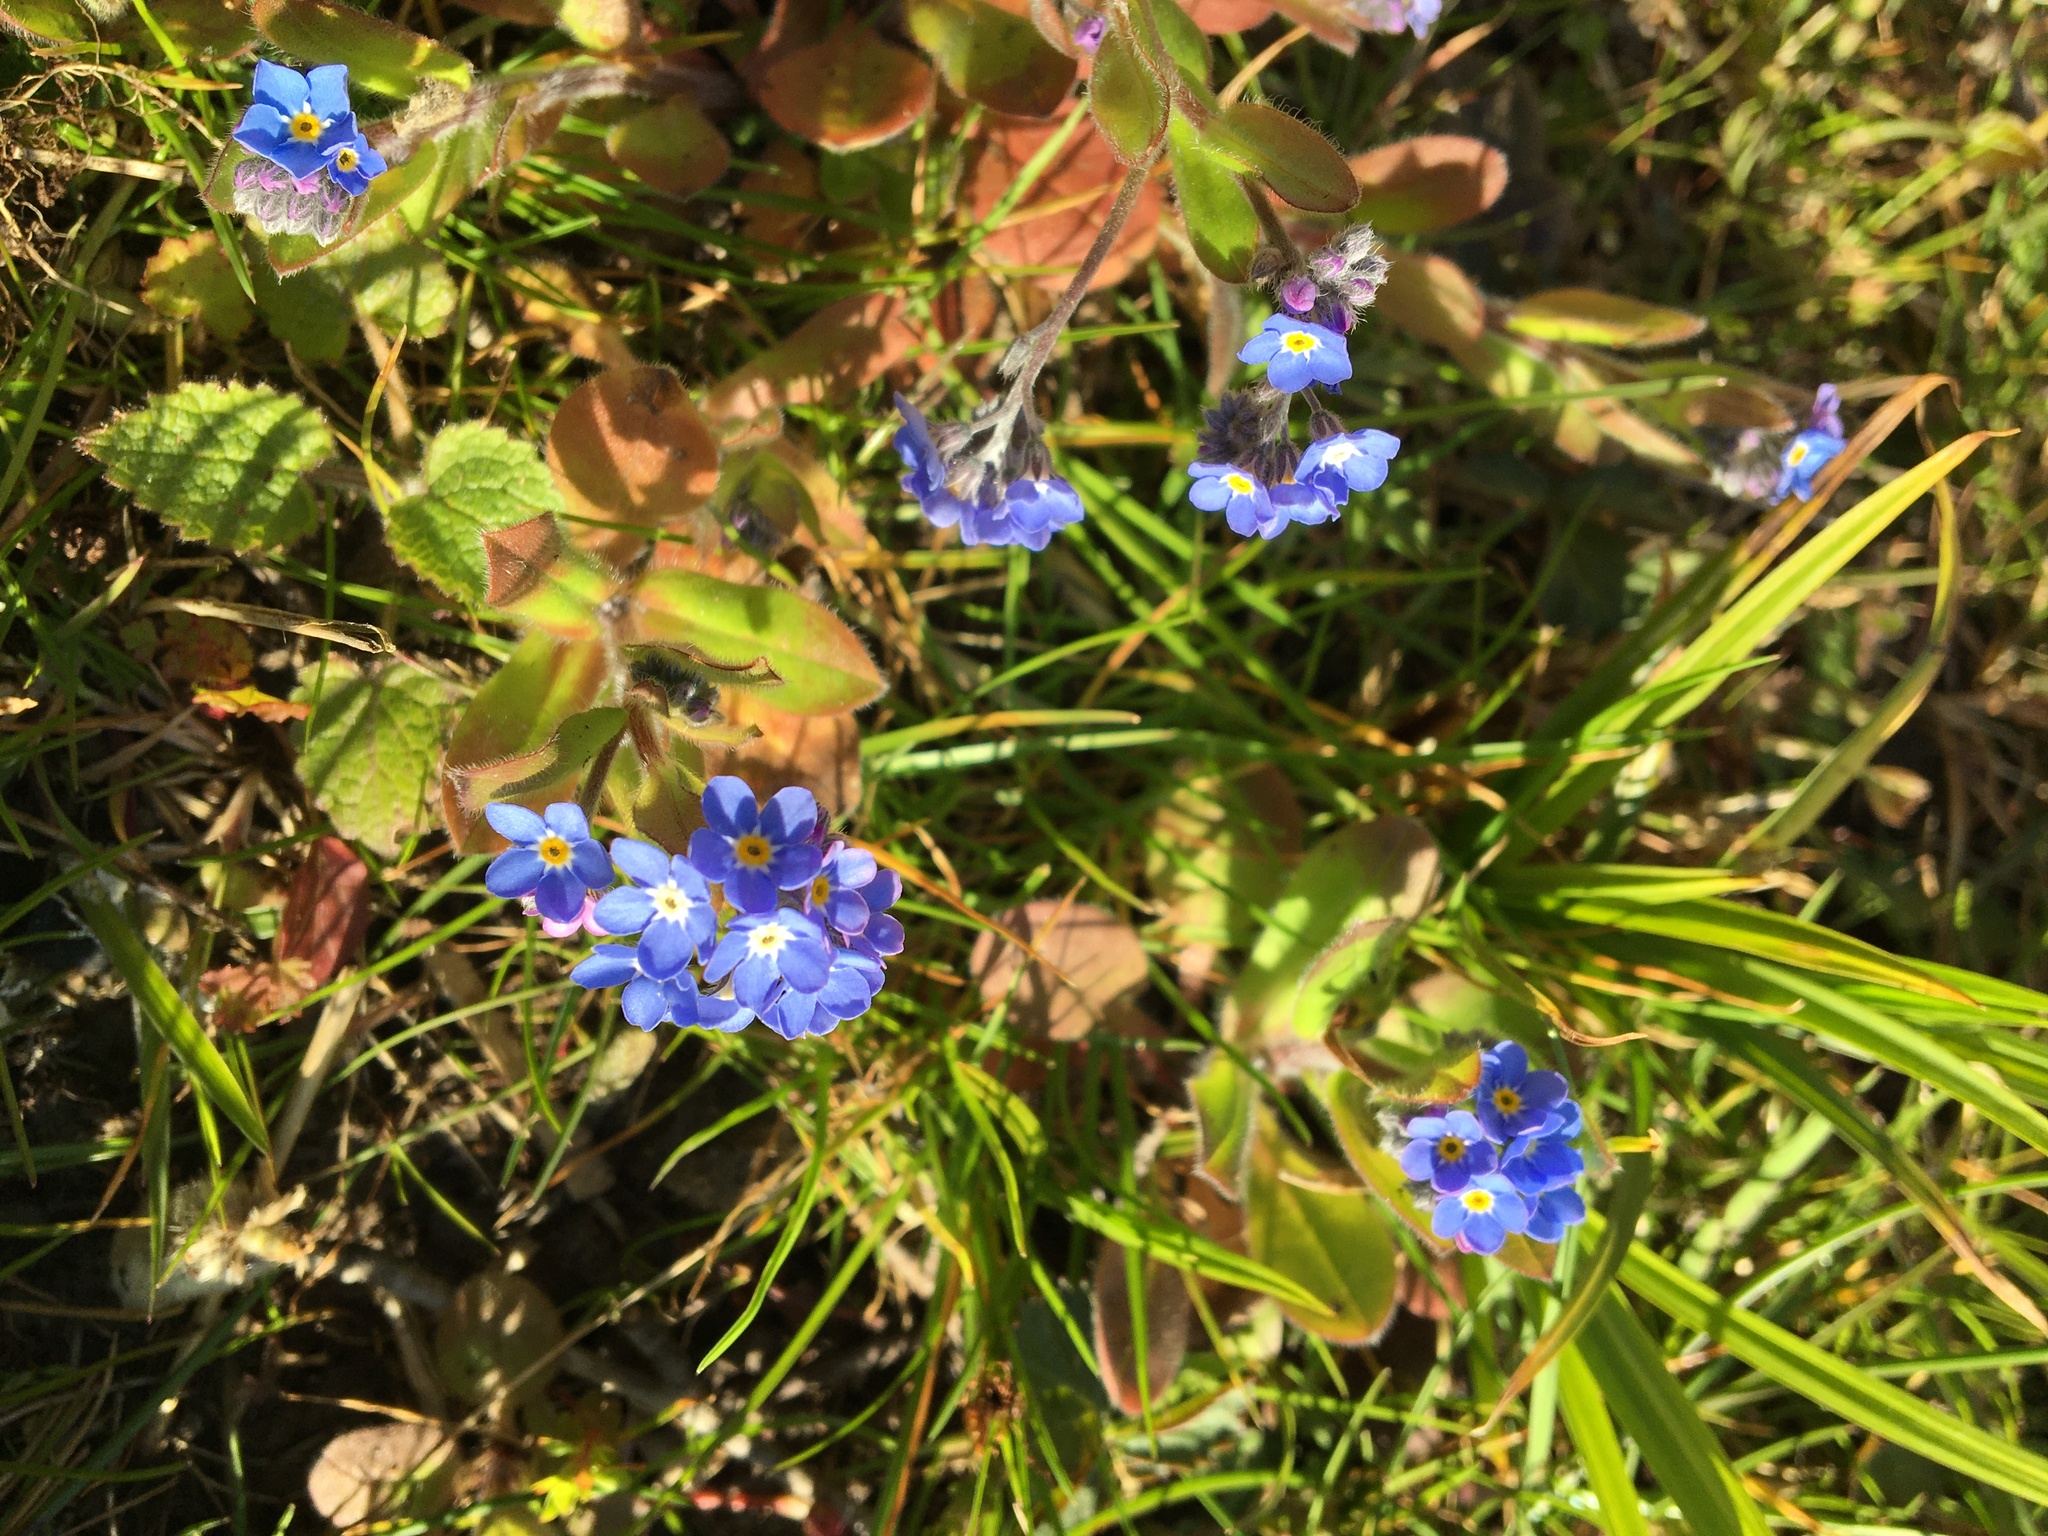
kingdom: Plantae
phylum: Tracheophyta
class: Magnoliopsida
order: Boraginales
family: Boraginaceae
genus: Myosotis
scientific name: Myosotis sylvatica
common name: Wood forget-me-not
